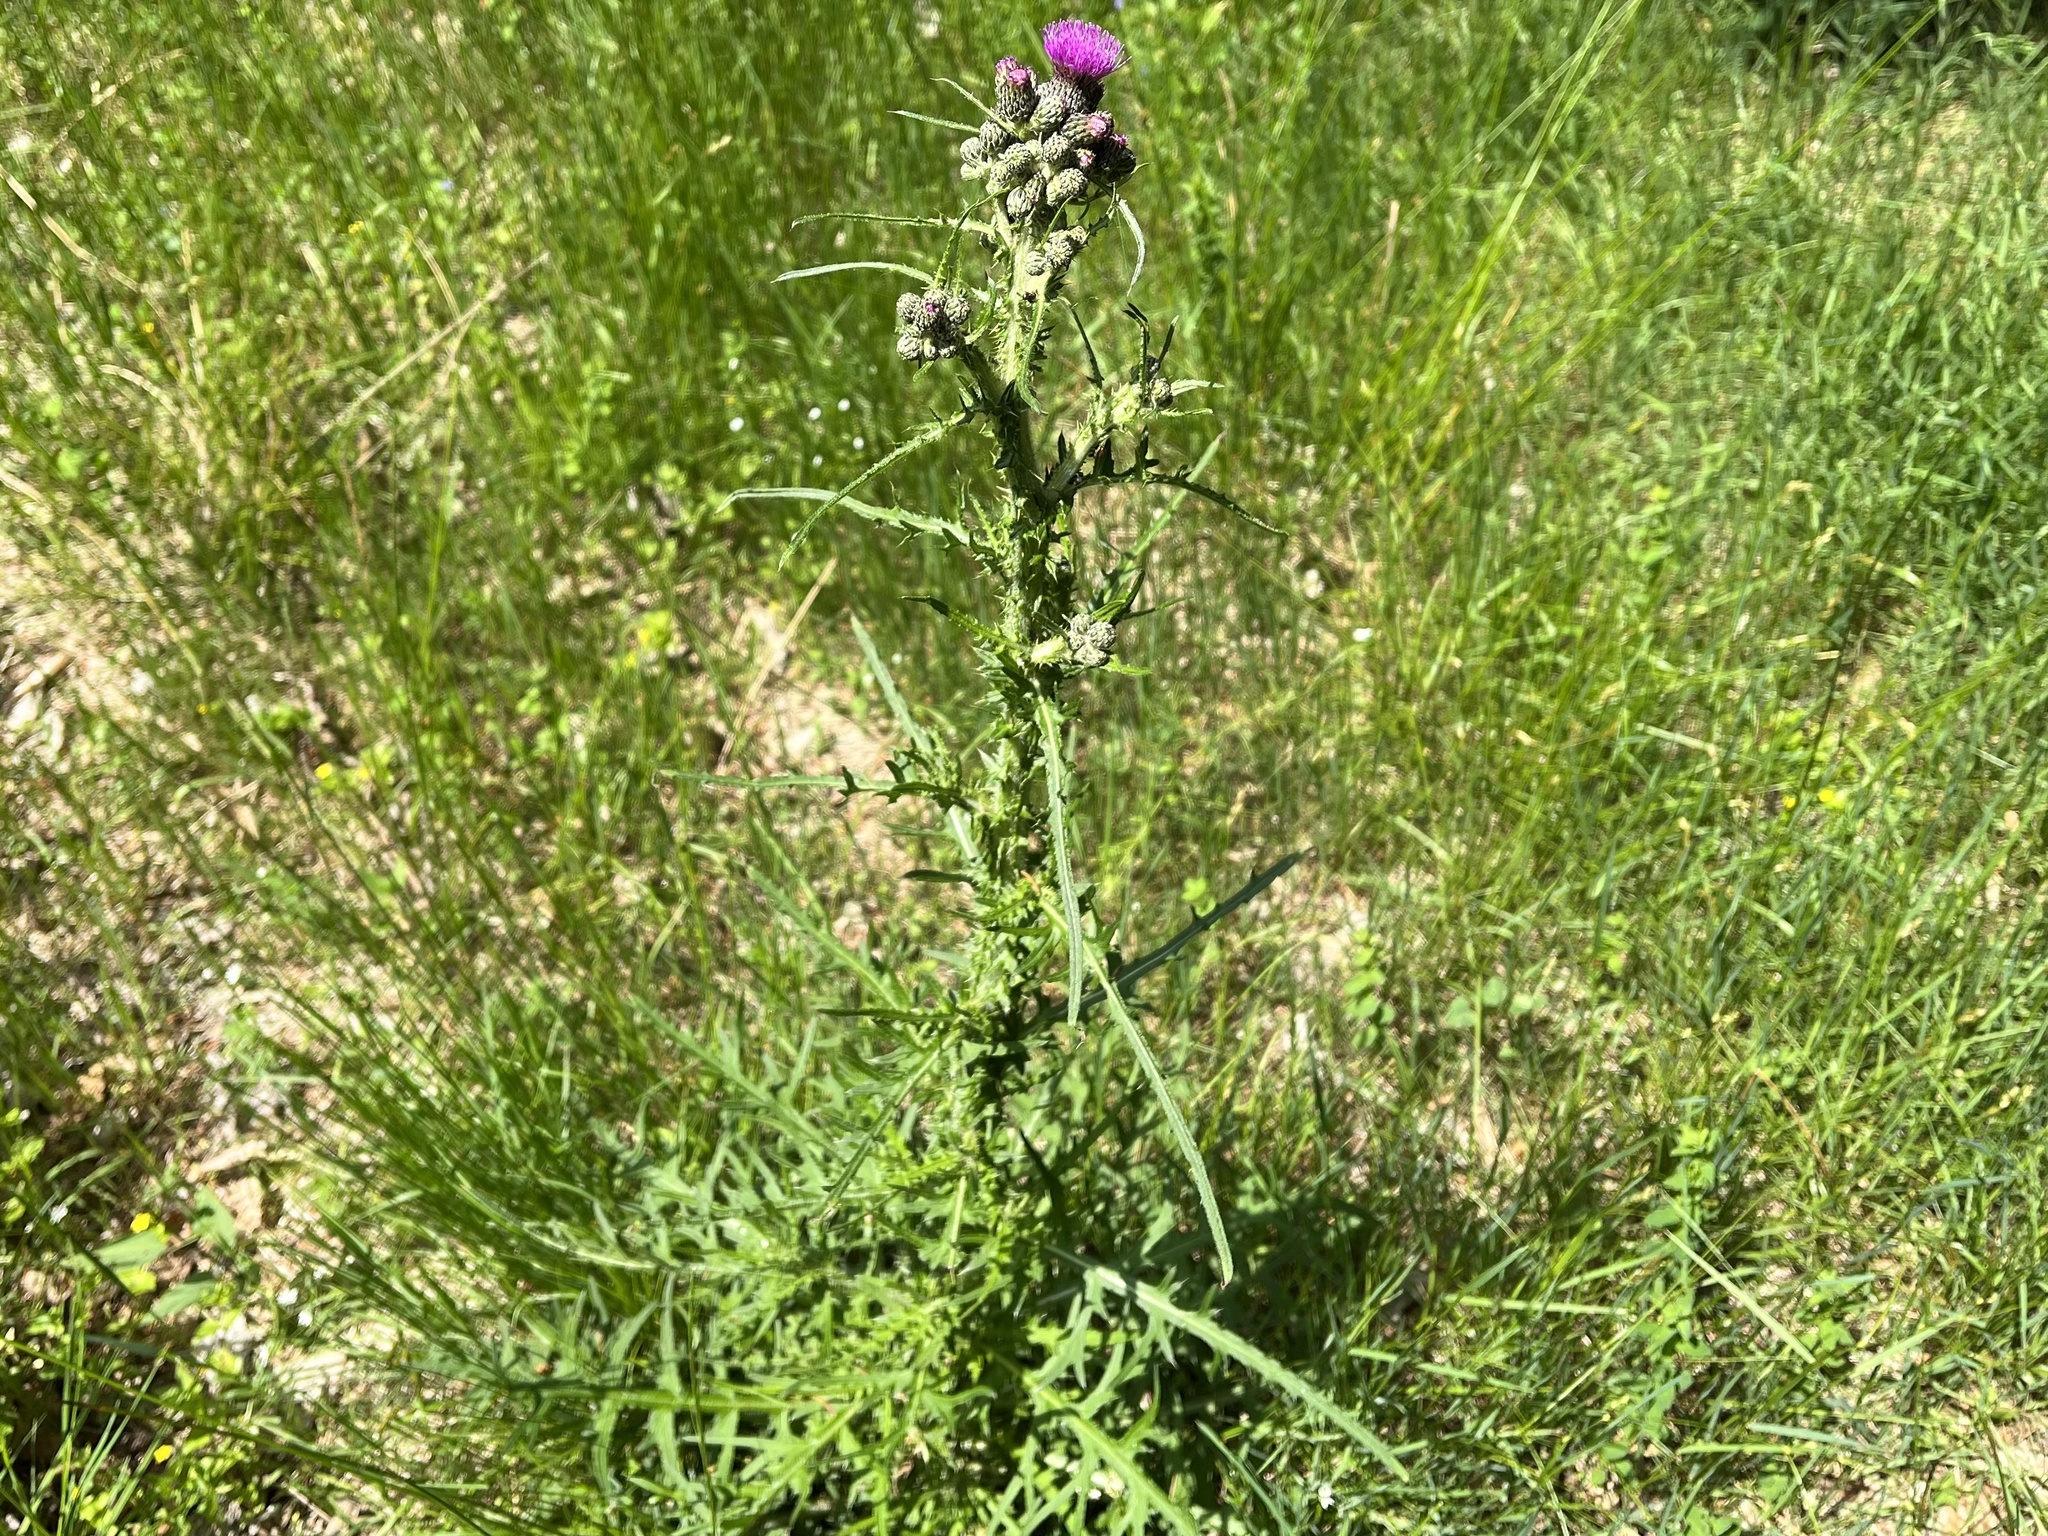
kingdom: Plantae
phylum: Tracheophyta
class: Magnoliopsida
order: Asterales
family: Asteraceae
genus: Cirsium
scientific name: Cirsium palustre
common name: Marsh thistle
